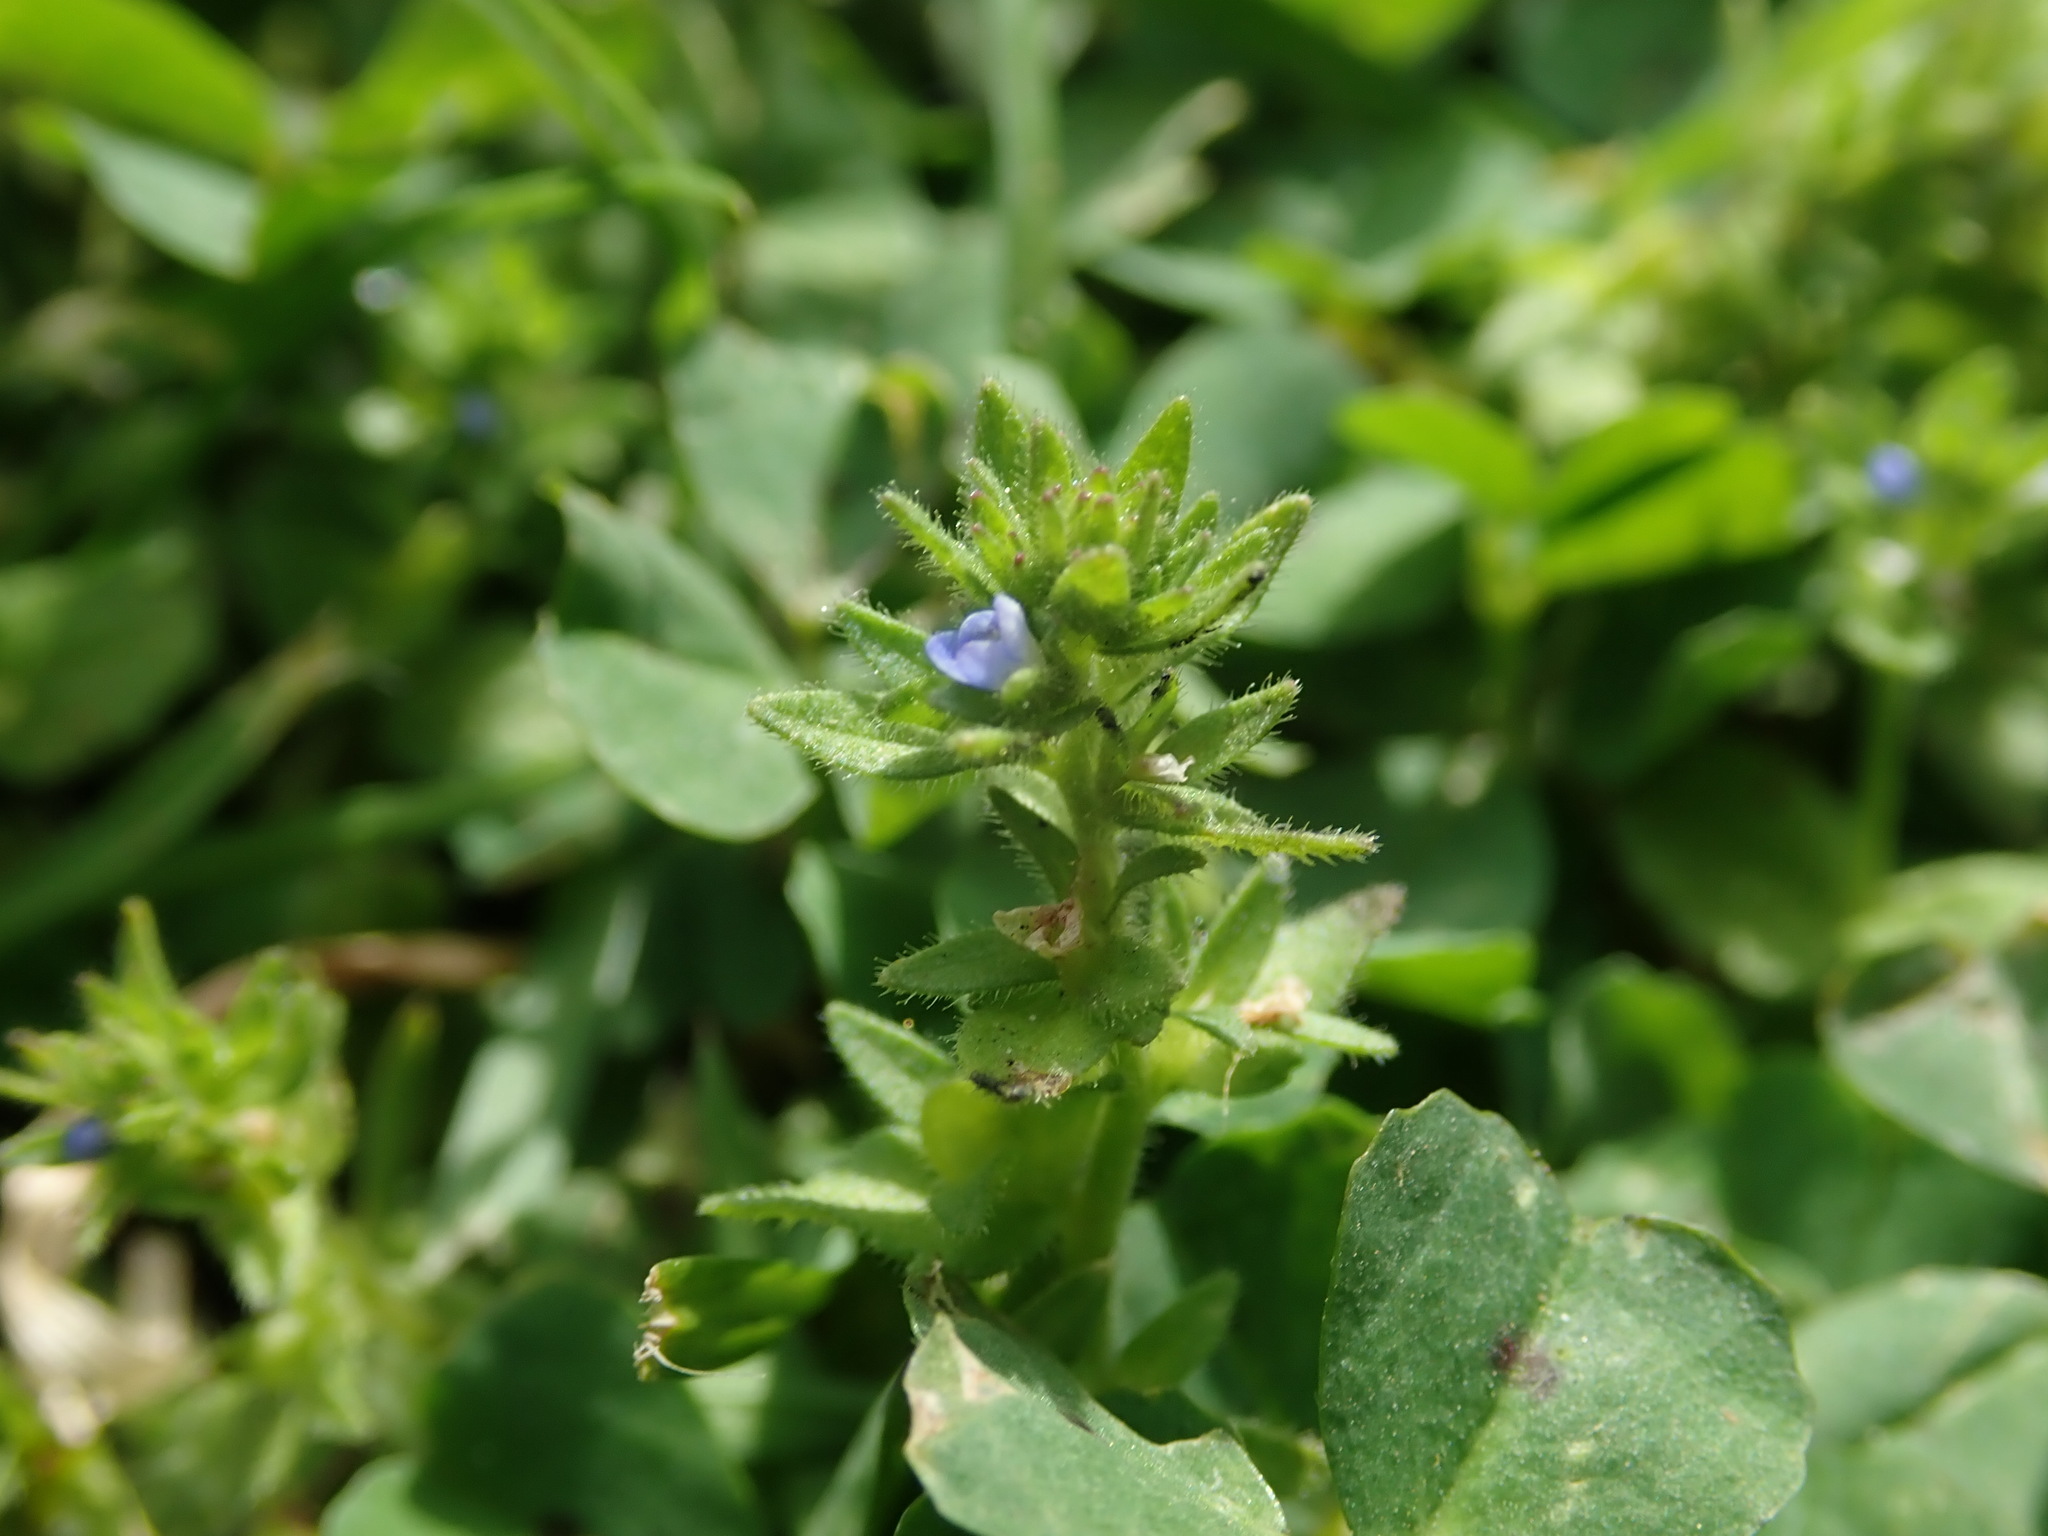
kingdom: Plantae
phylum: Tracheophyta
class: Magnoliopsida
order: Lamiales
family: Plantaginaceae
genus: Veronica
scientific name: Veronica arvensis
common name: Corn speedwell
